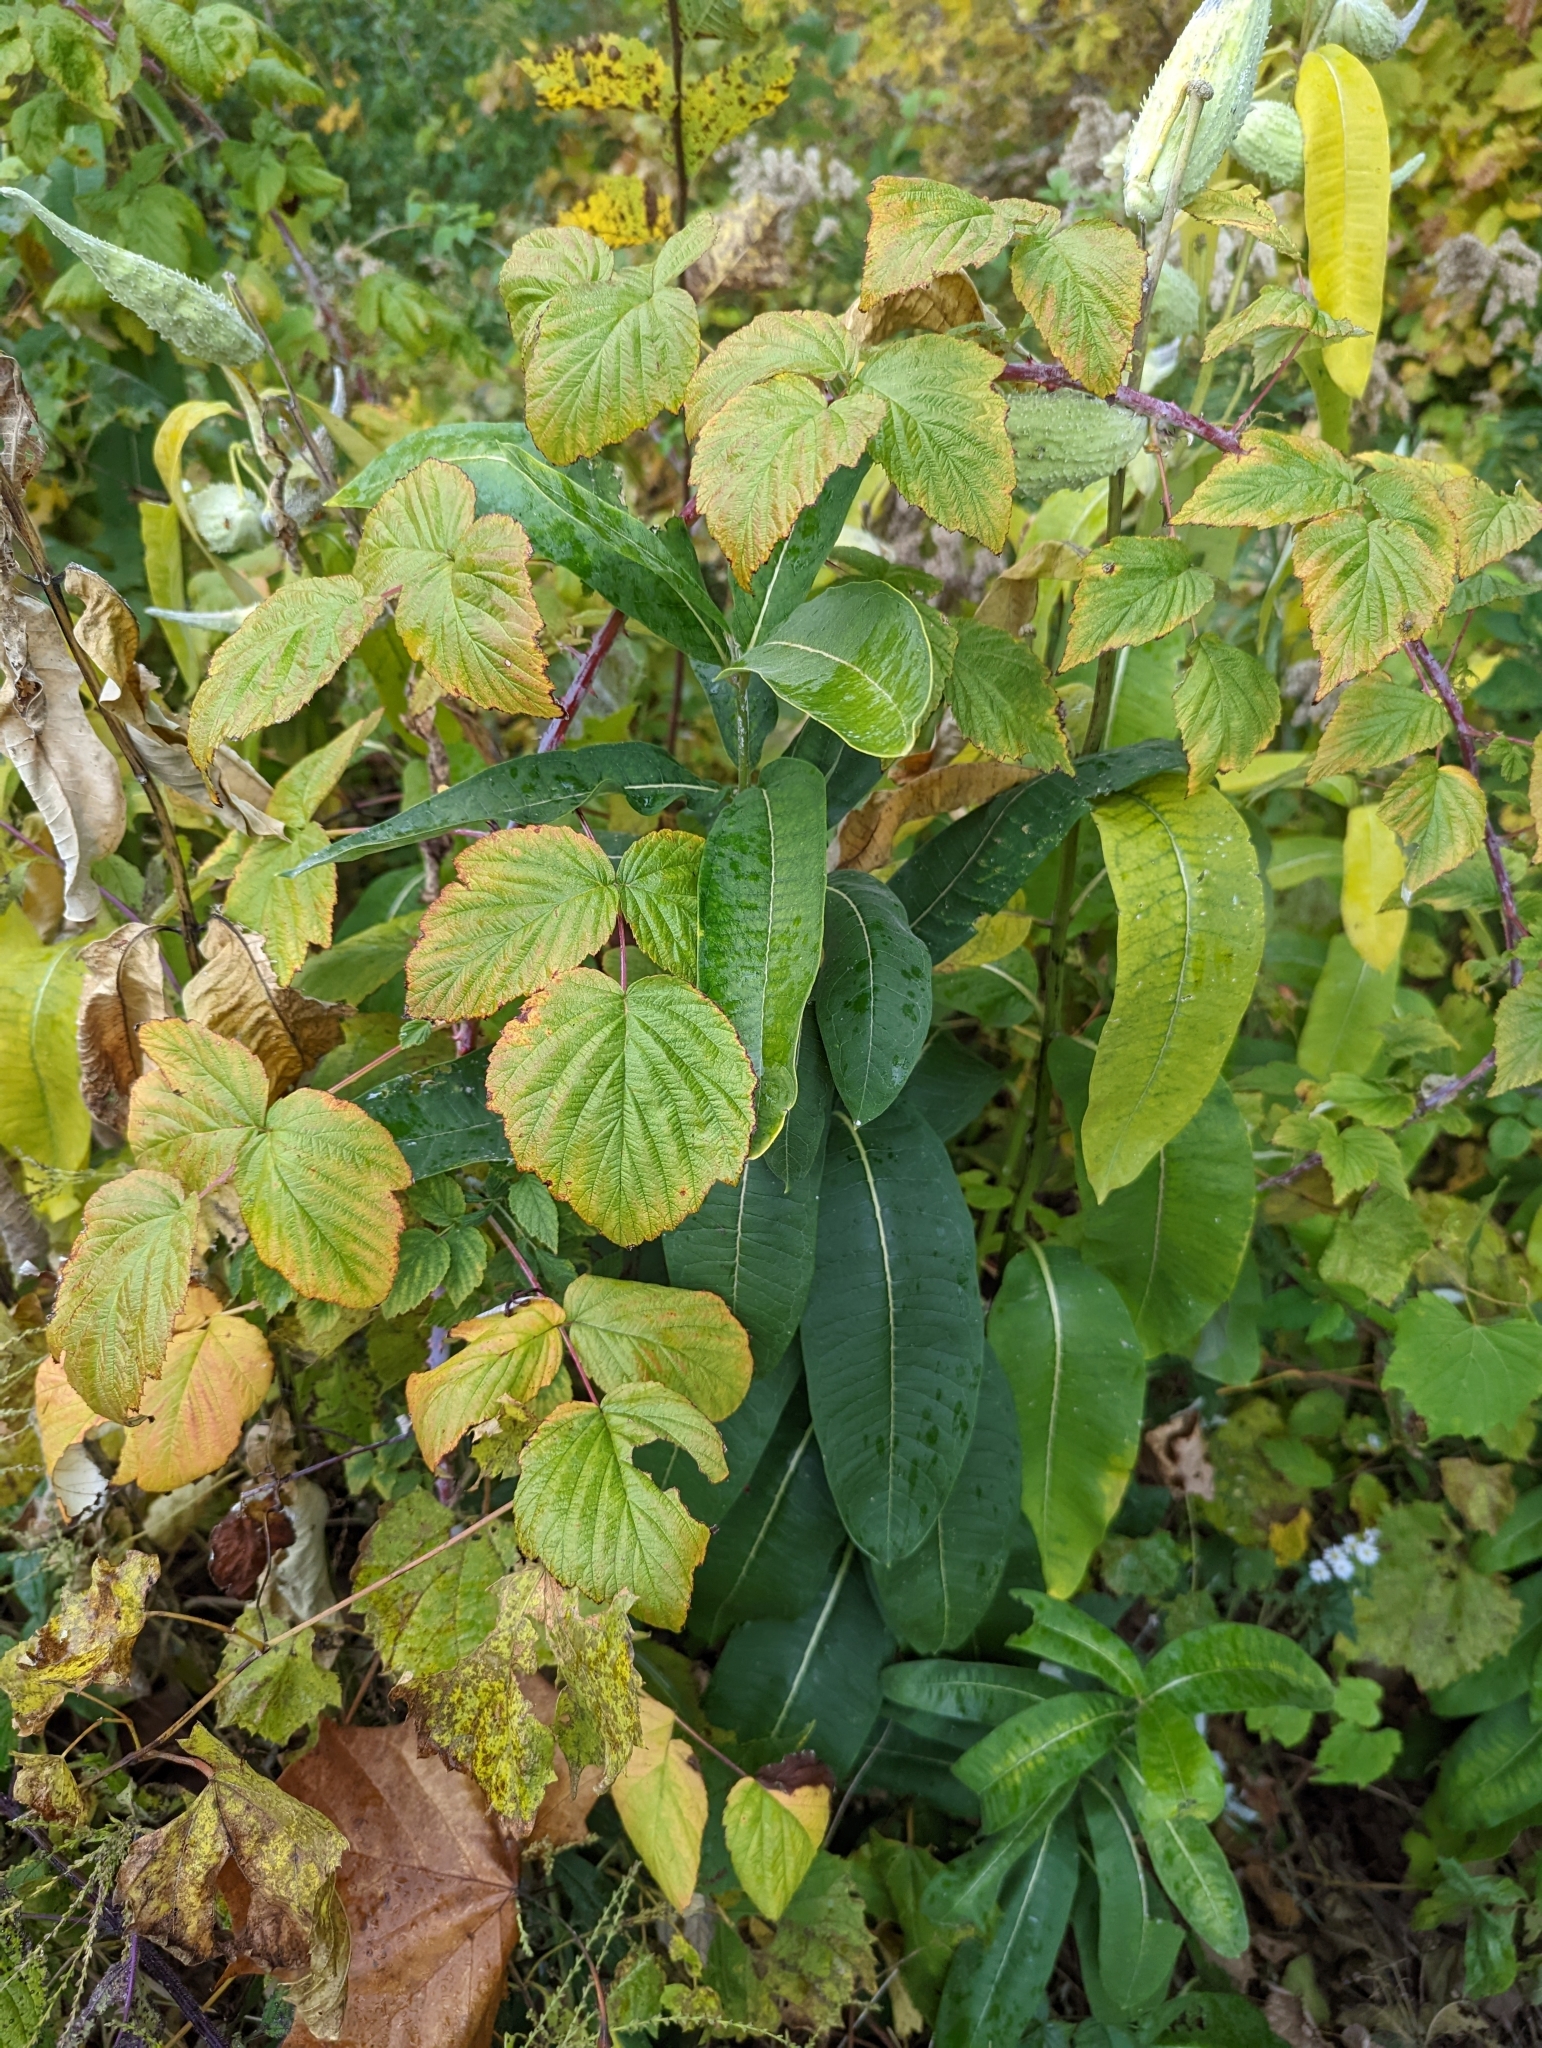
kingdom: Plantae
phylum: Tracheophyta
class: Magnoliopsida
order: Gentianales
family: Apocynaceae
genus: Asclepias
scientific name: Asclepias syriaca
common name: Common milkweed
